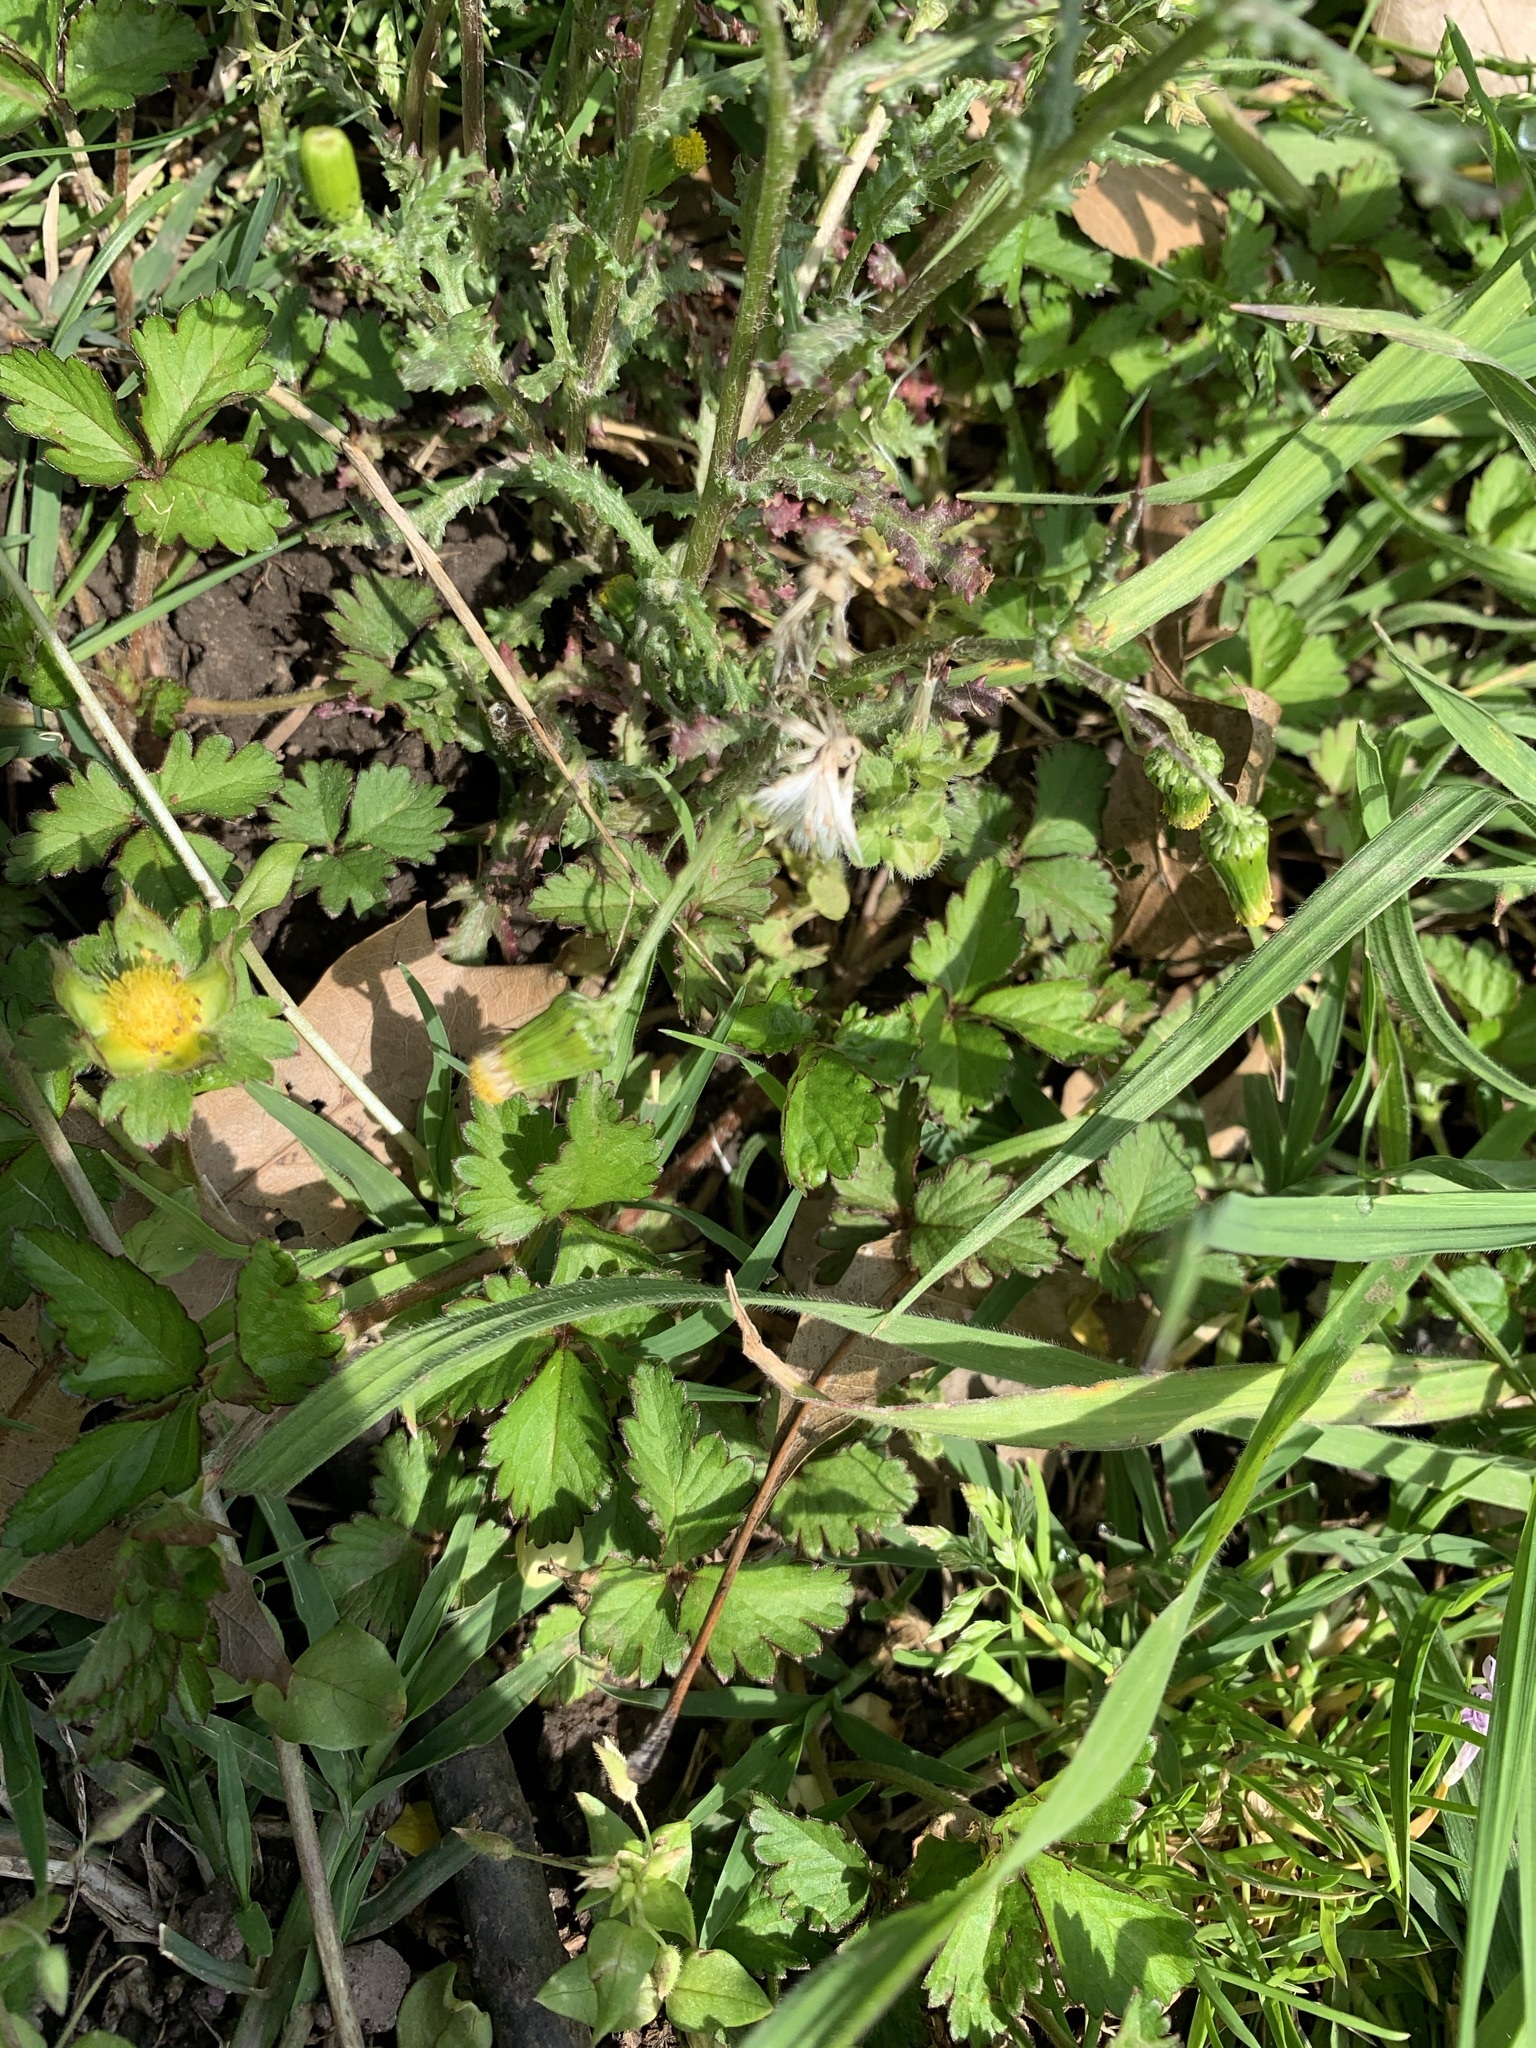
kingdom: Plantae
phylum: Tracheophyta
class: Magnoliopsida
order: Rosales
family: Rosaceae
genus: Potentilla
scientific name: Potentilla indica
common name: Yellow-flowered strawberry
